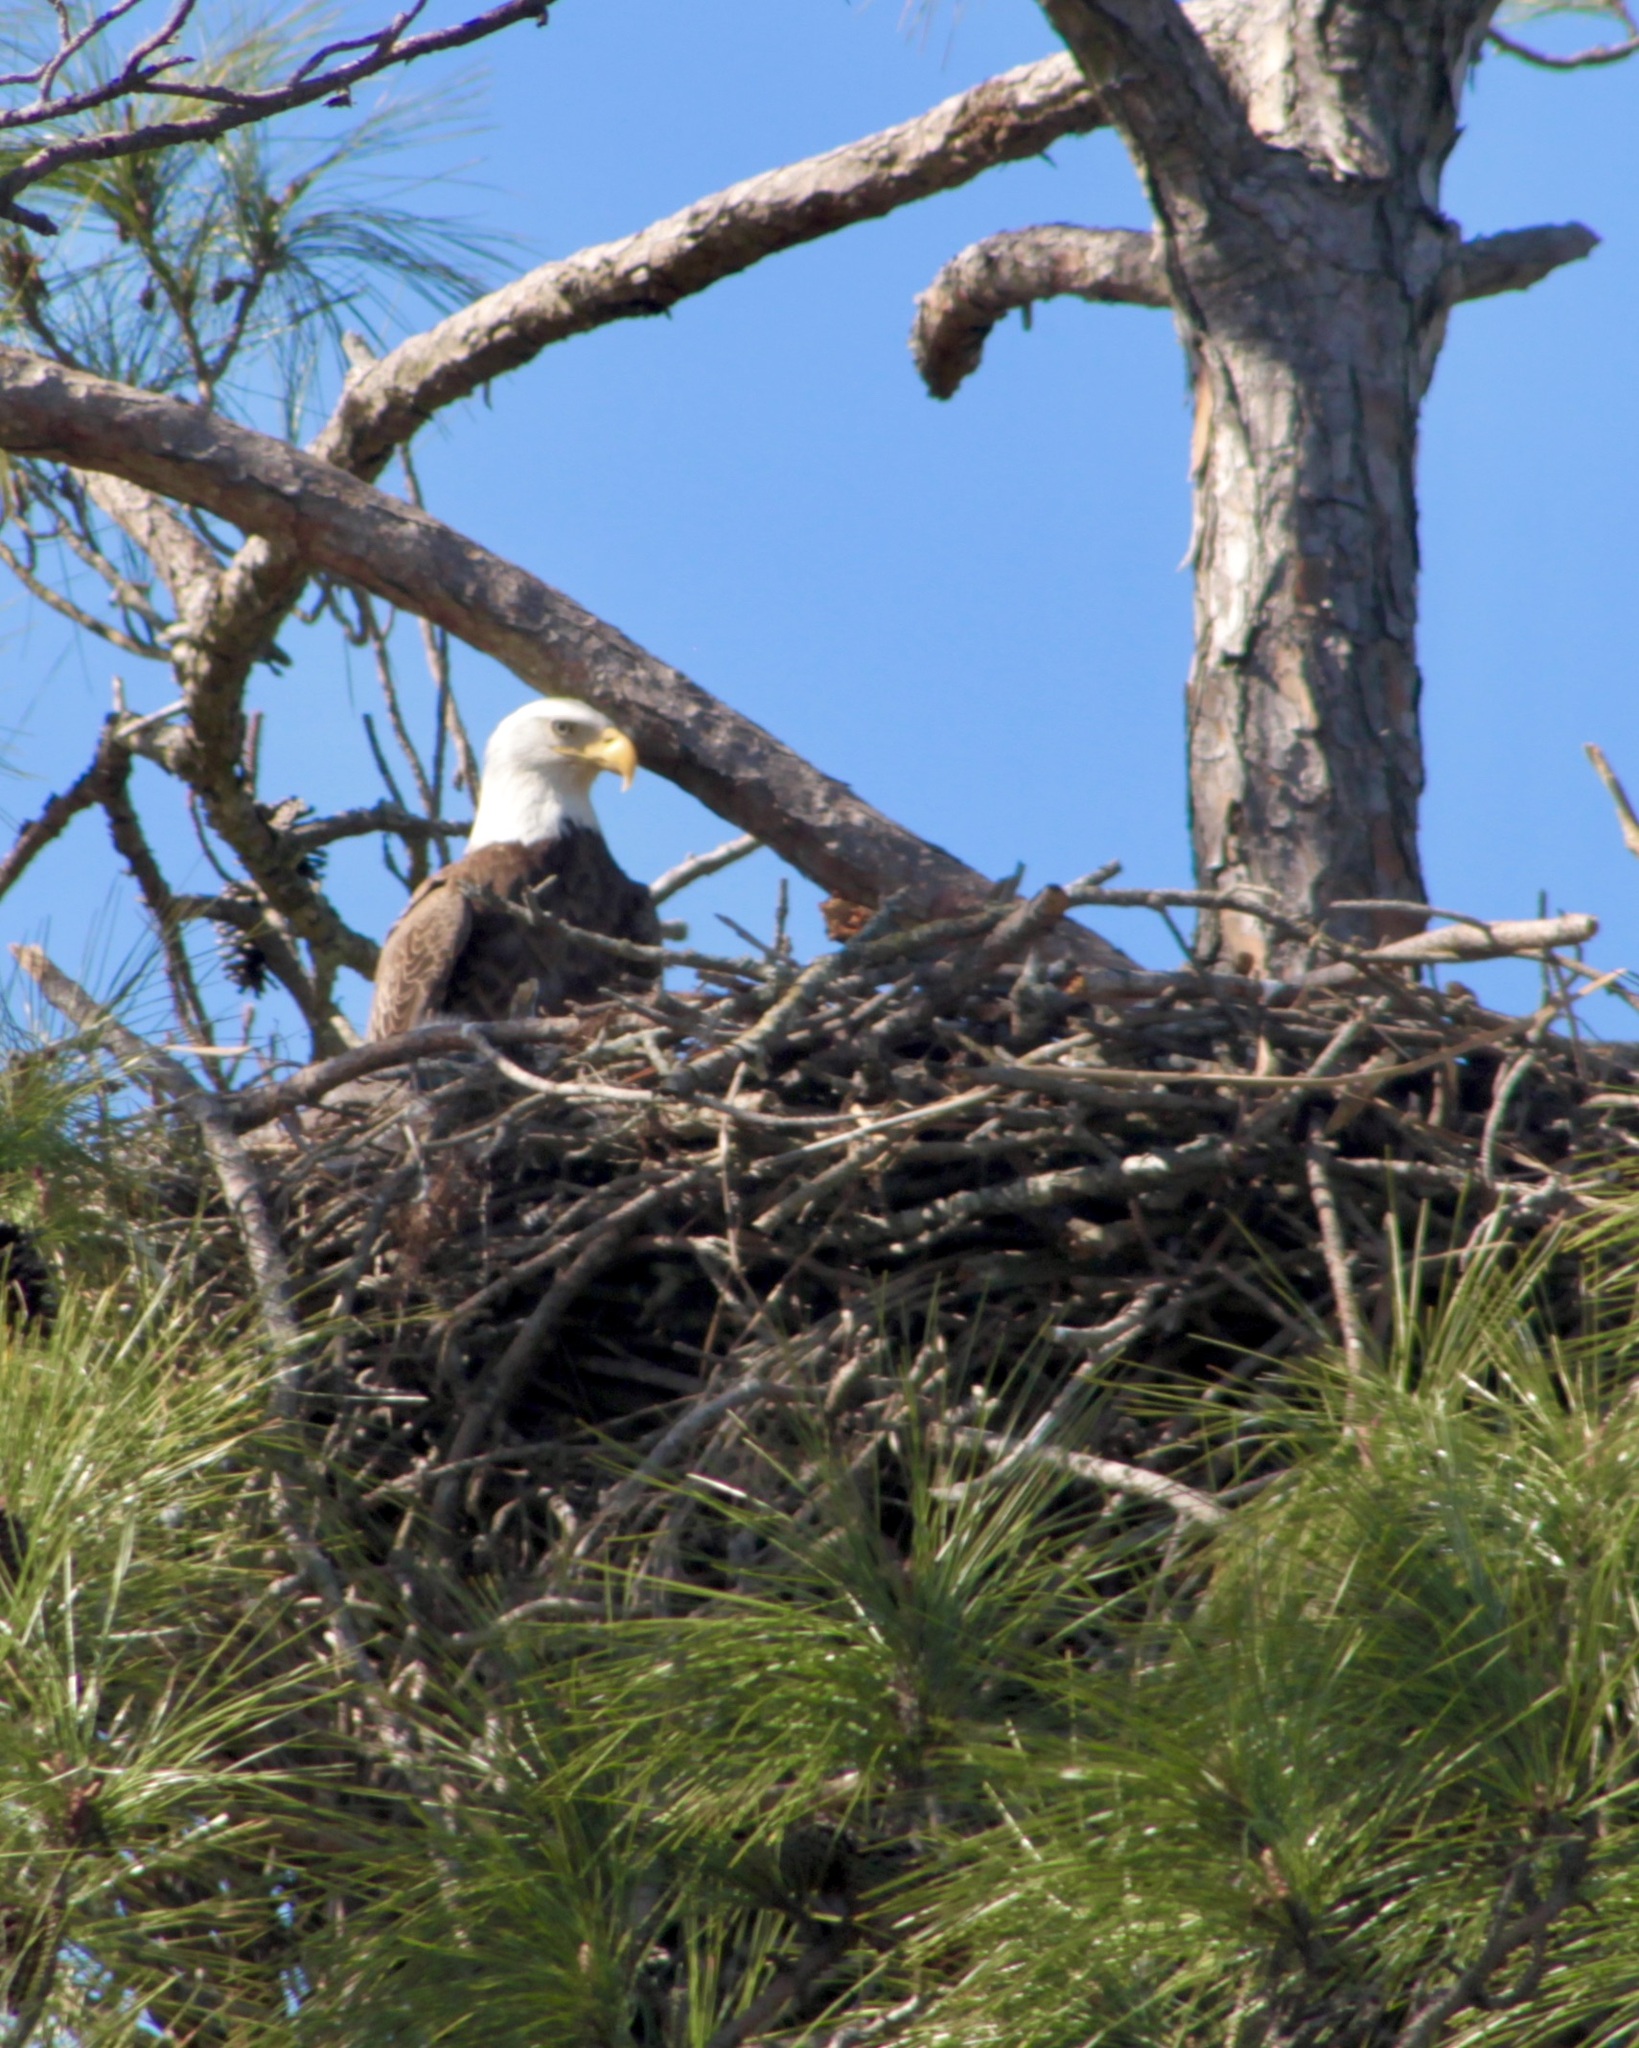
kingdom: Animalia
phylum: Chordata
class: Aves
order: Accipitriformes
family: Accipitridae
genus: Haliaeetus
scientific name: Haliaeetus leucocephalus
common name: Bald eagle
